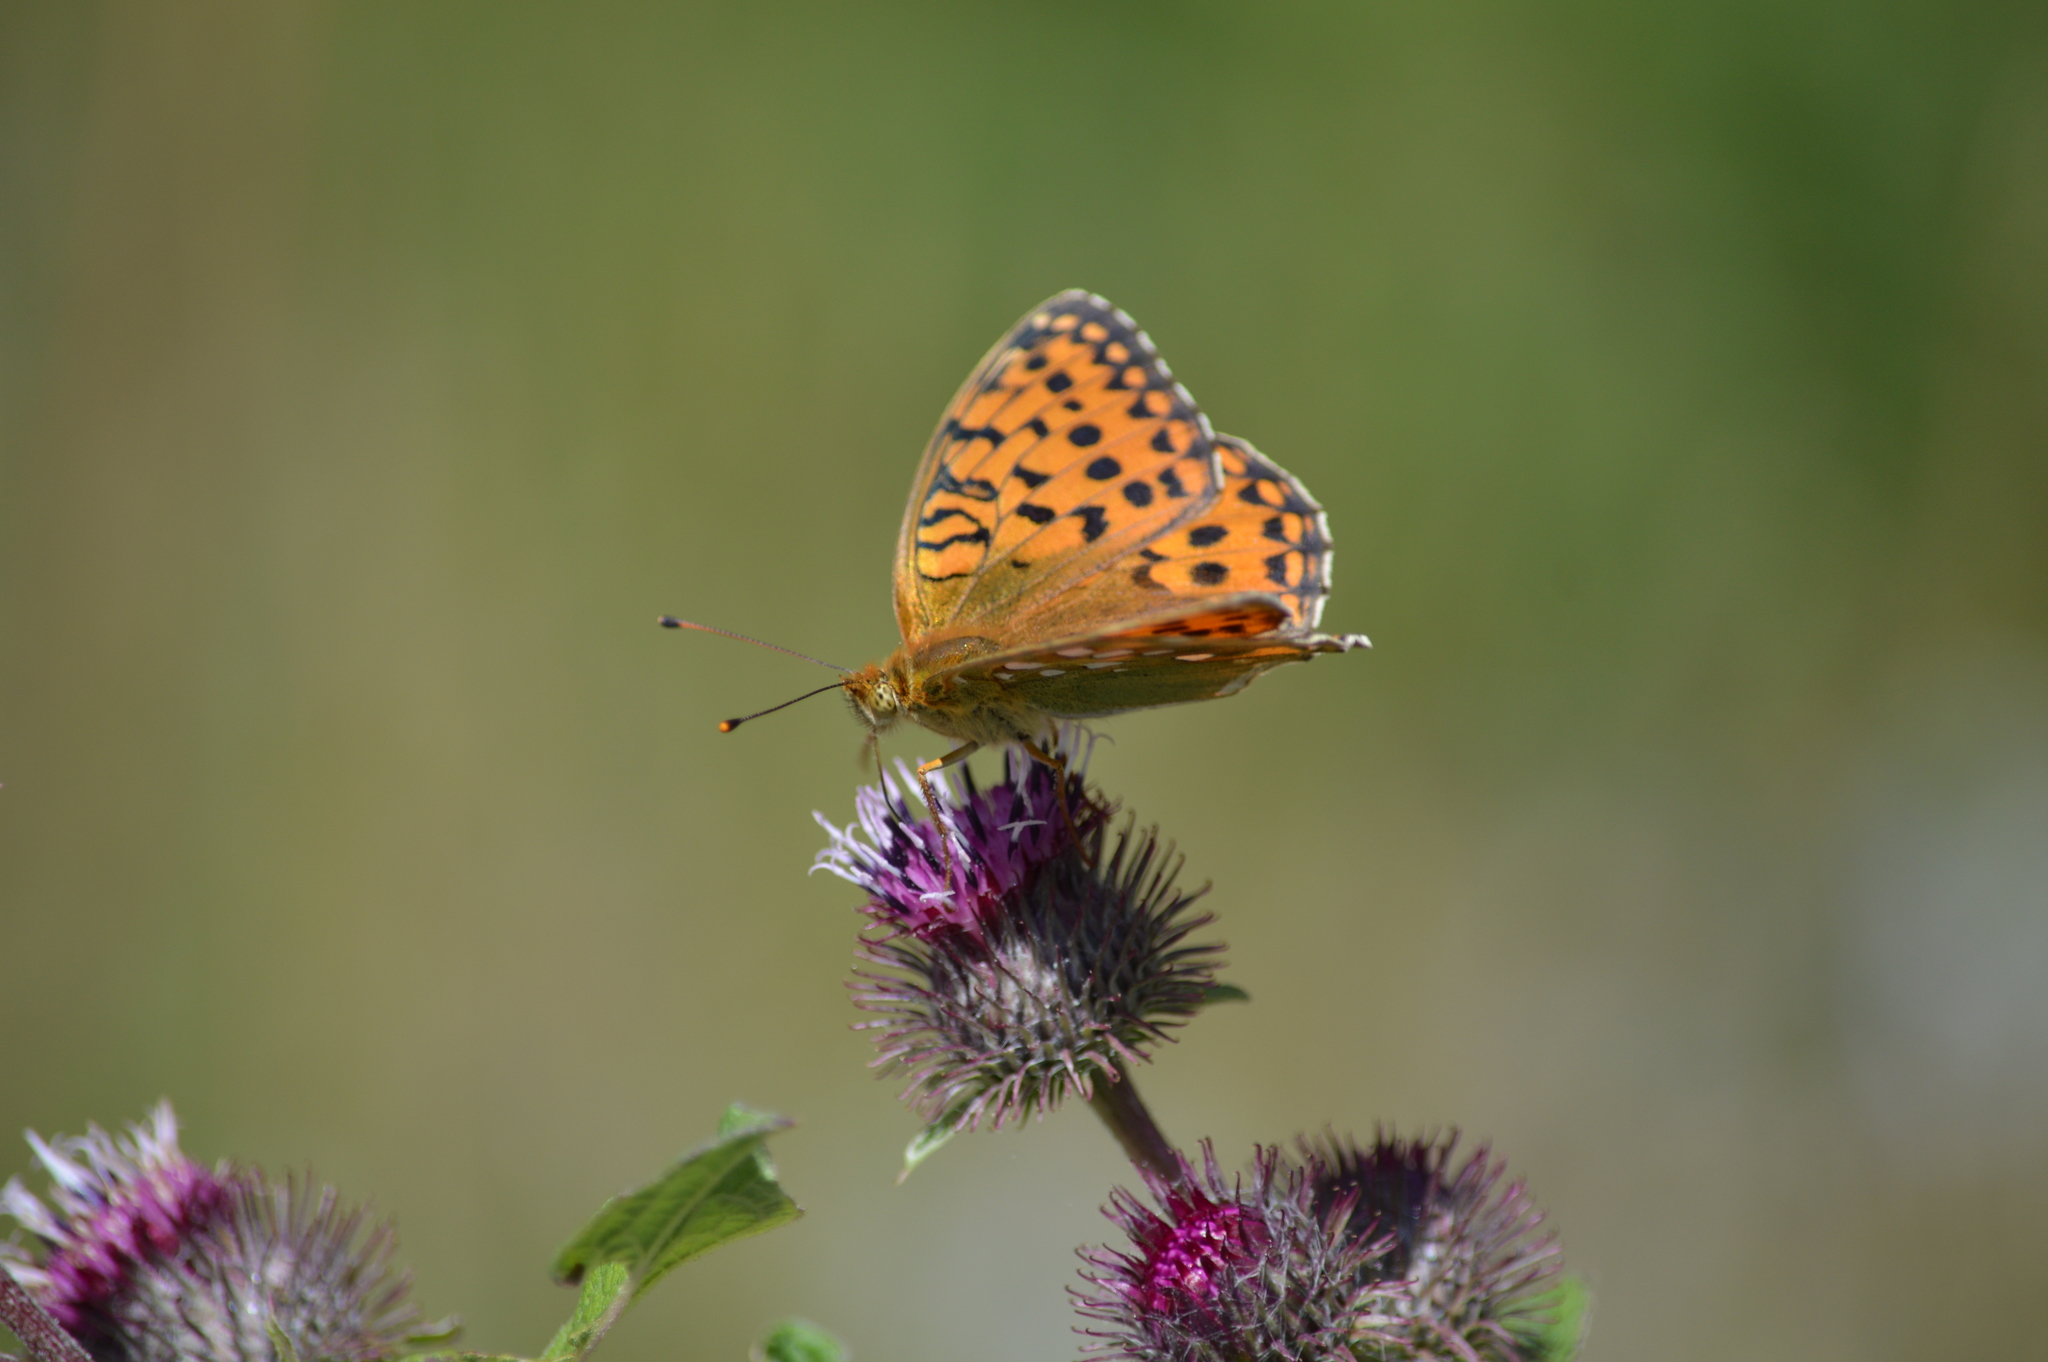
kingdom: Animalia
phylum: Arthropoda
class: Insecta
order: Lepidoptera
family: Nymphalidae
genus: Speyeria
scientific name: Speyeria aglaja
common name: Dark green fritillary
